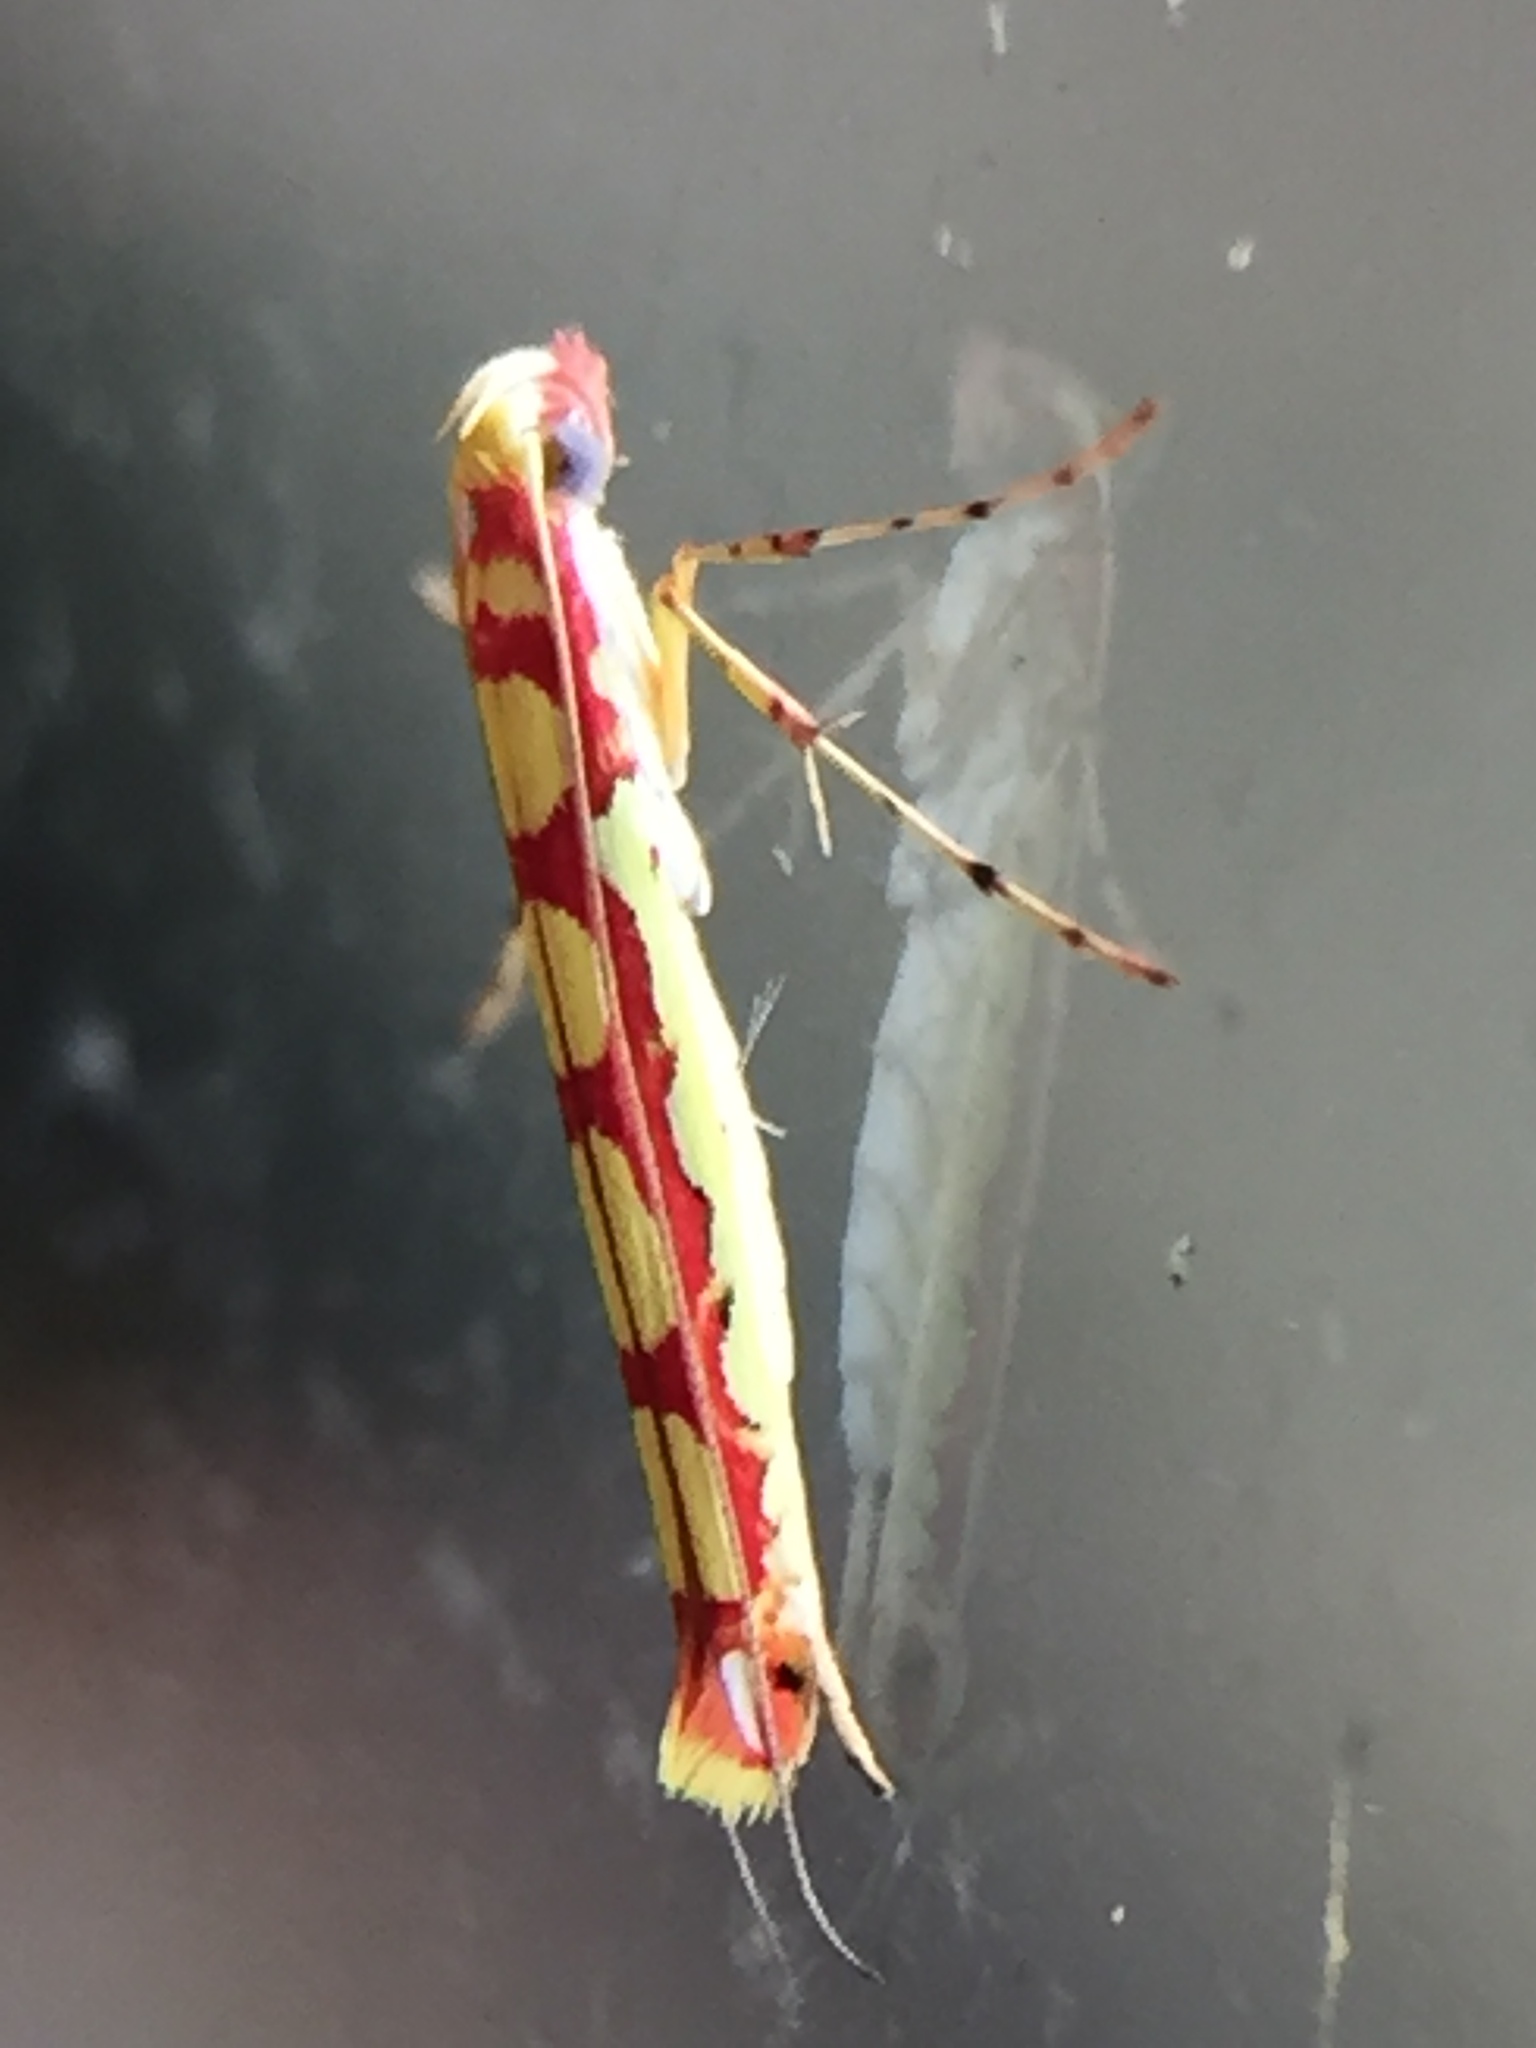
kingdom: Animalia
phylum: Arthropoda
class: Insecta
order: Lepidoptera
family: Gracillariidae
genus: Macarostola
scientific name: Macarostola miniella
